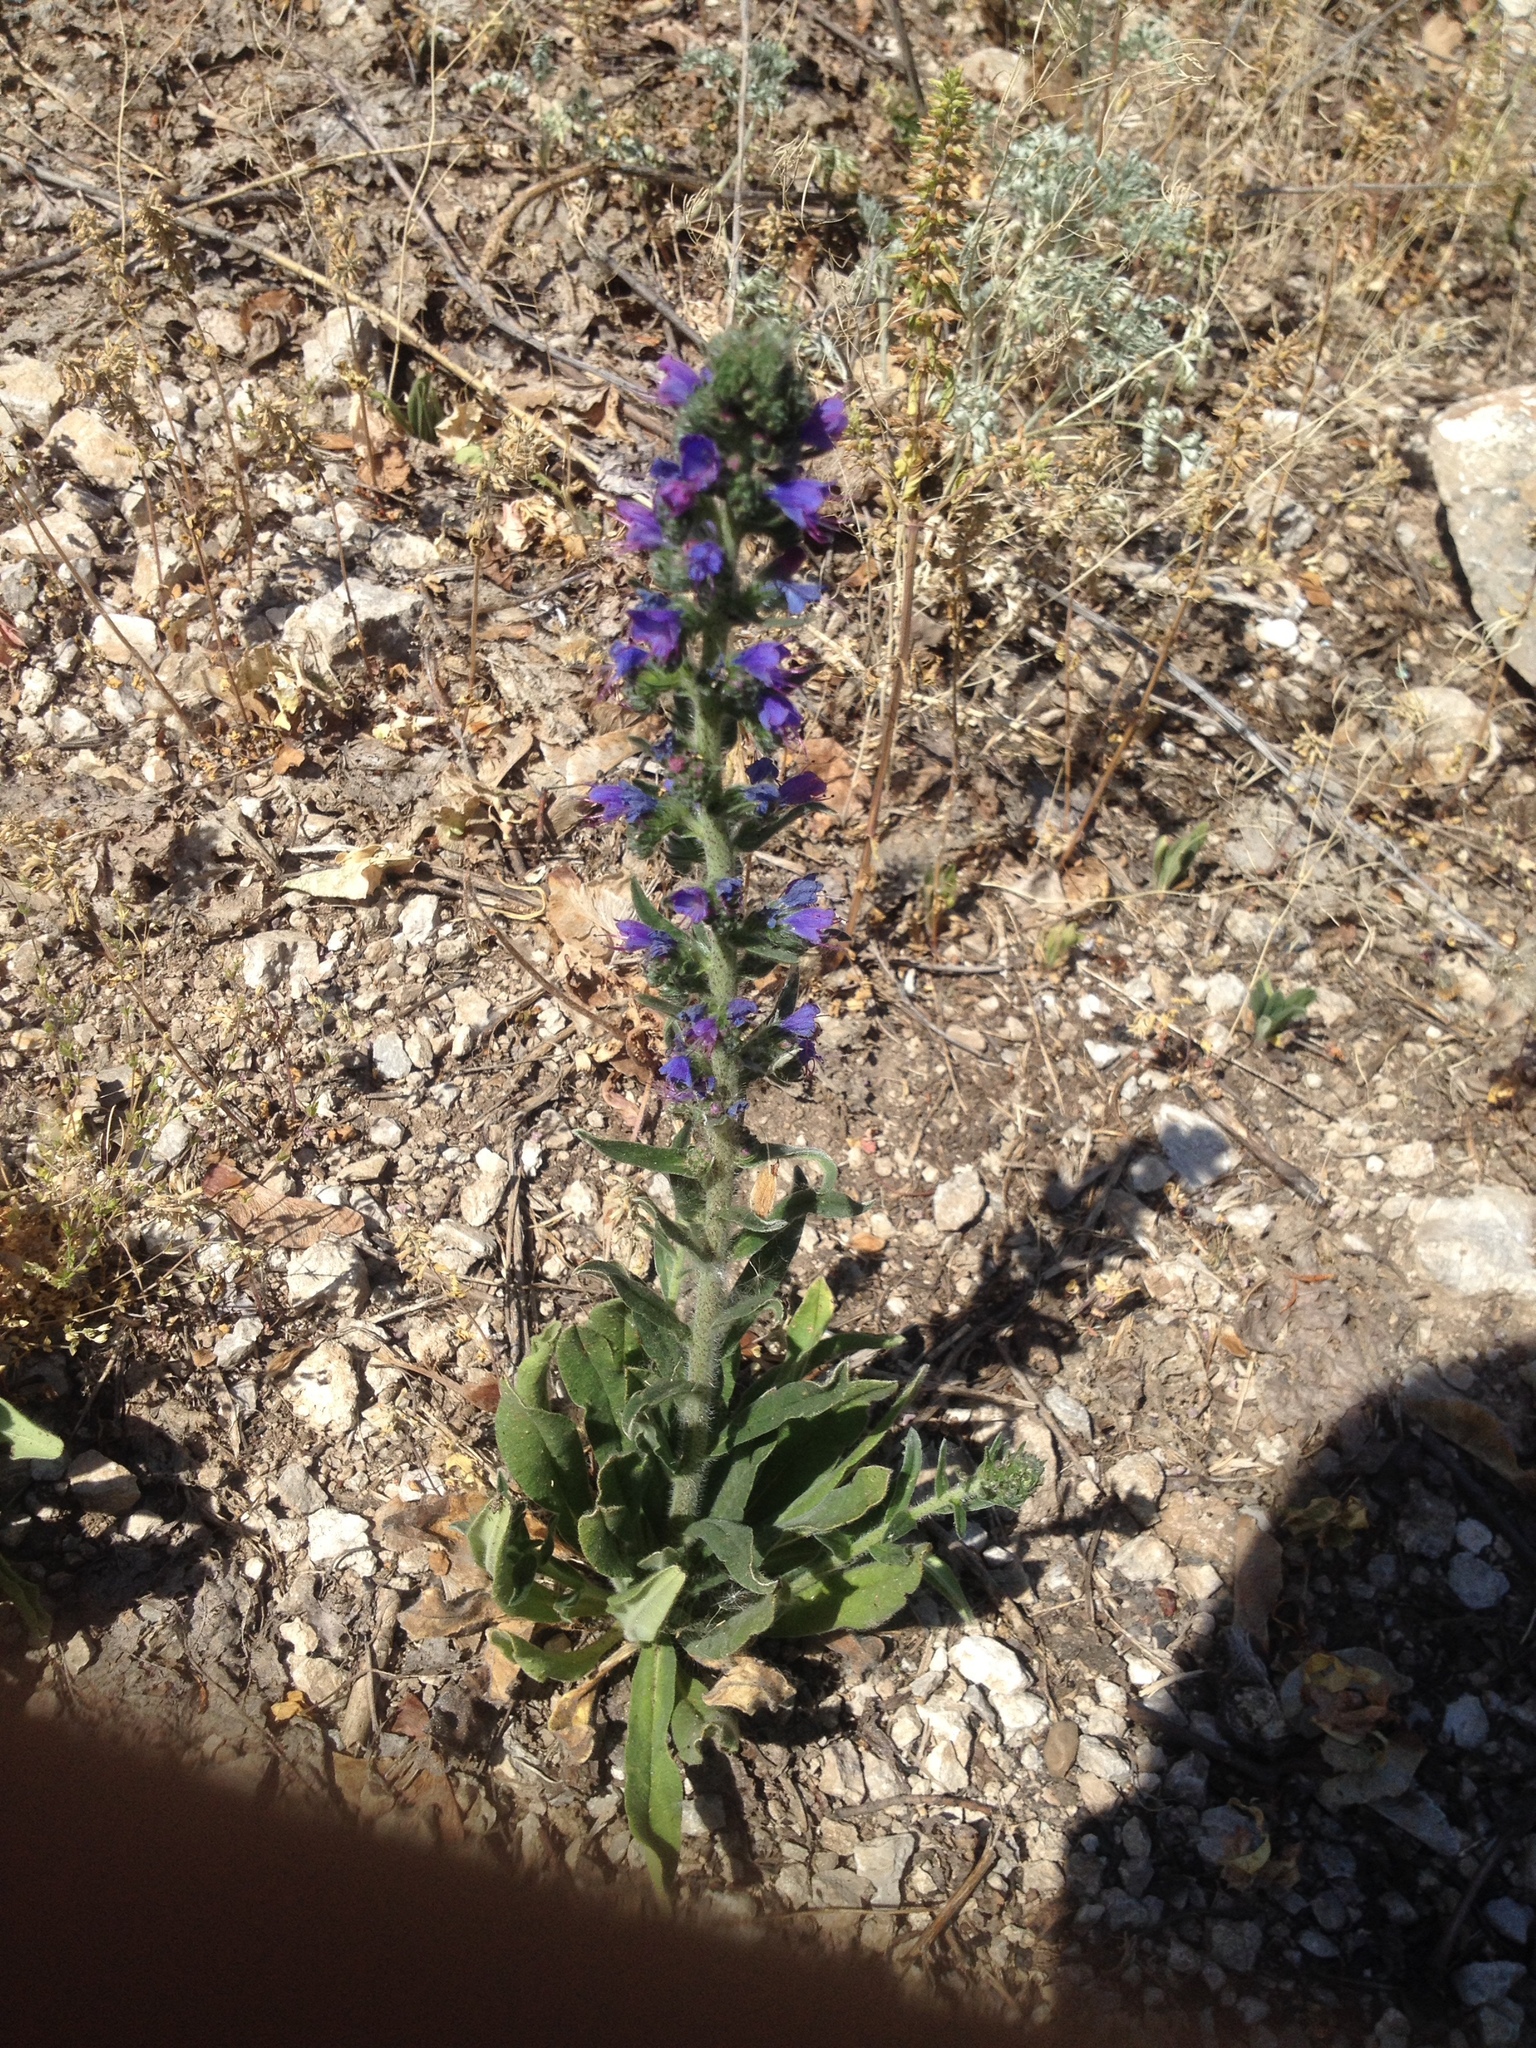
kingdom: Plantae
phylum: Tracheophyta
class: Magnoliopsida
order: Boraginales
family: Boraginaceae
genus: Echium
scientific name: Echium vulgare
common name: Common viper's bugloss
